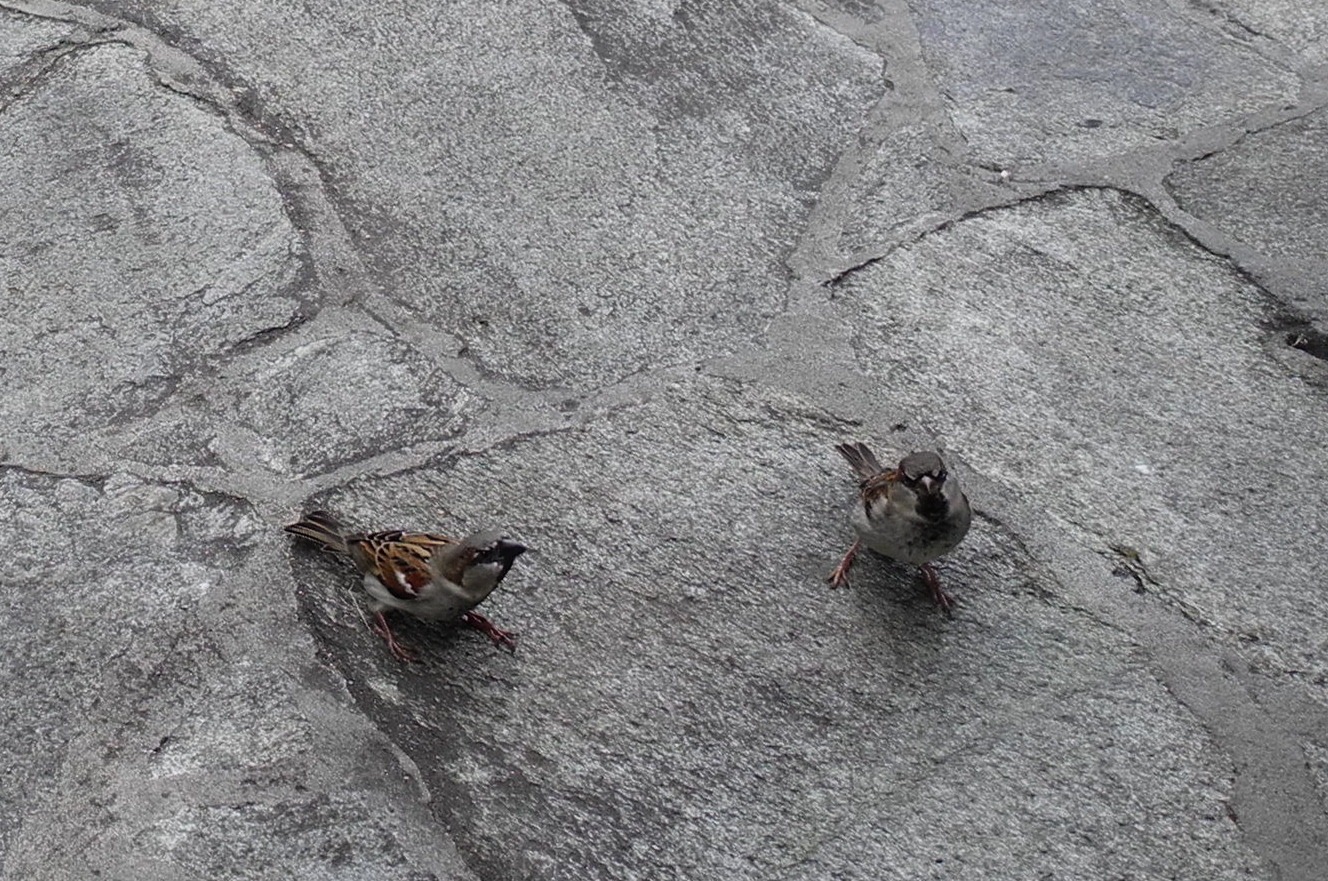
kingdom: Animalia
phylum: Chordata
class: Aves
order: Passeriformes
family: Passeridae
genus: Passer
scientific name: Passer domesticus
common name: House sparrow
